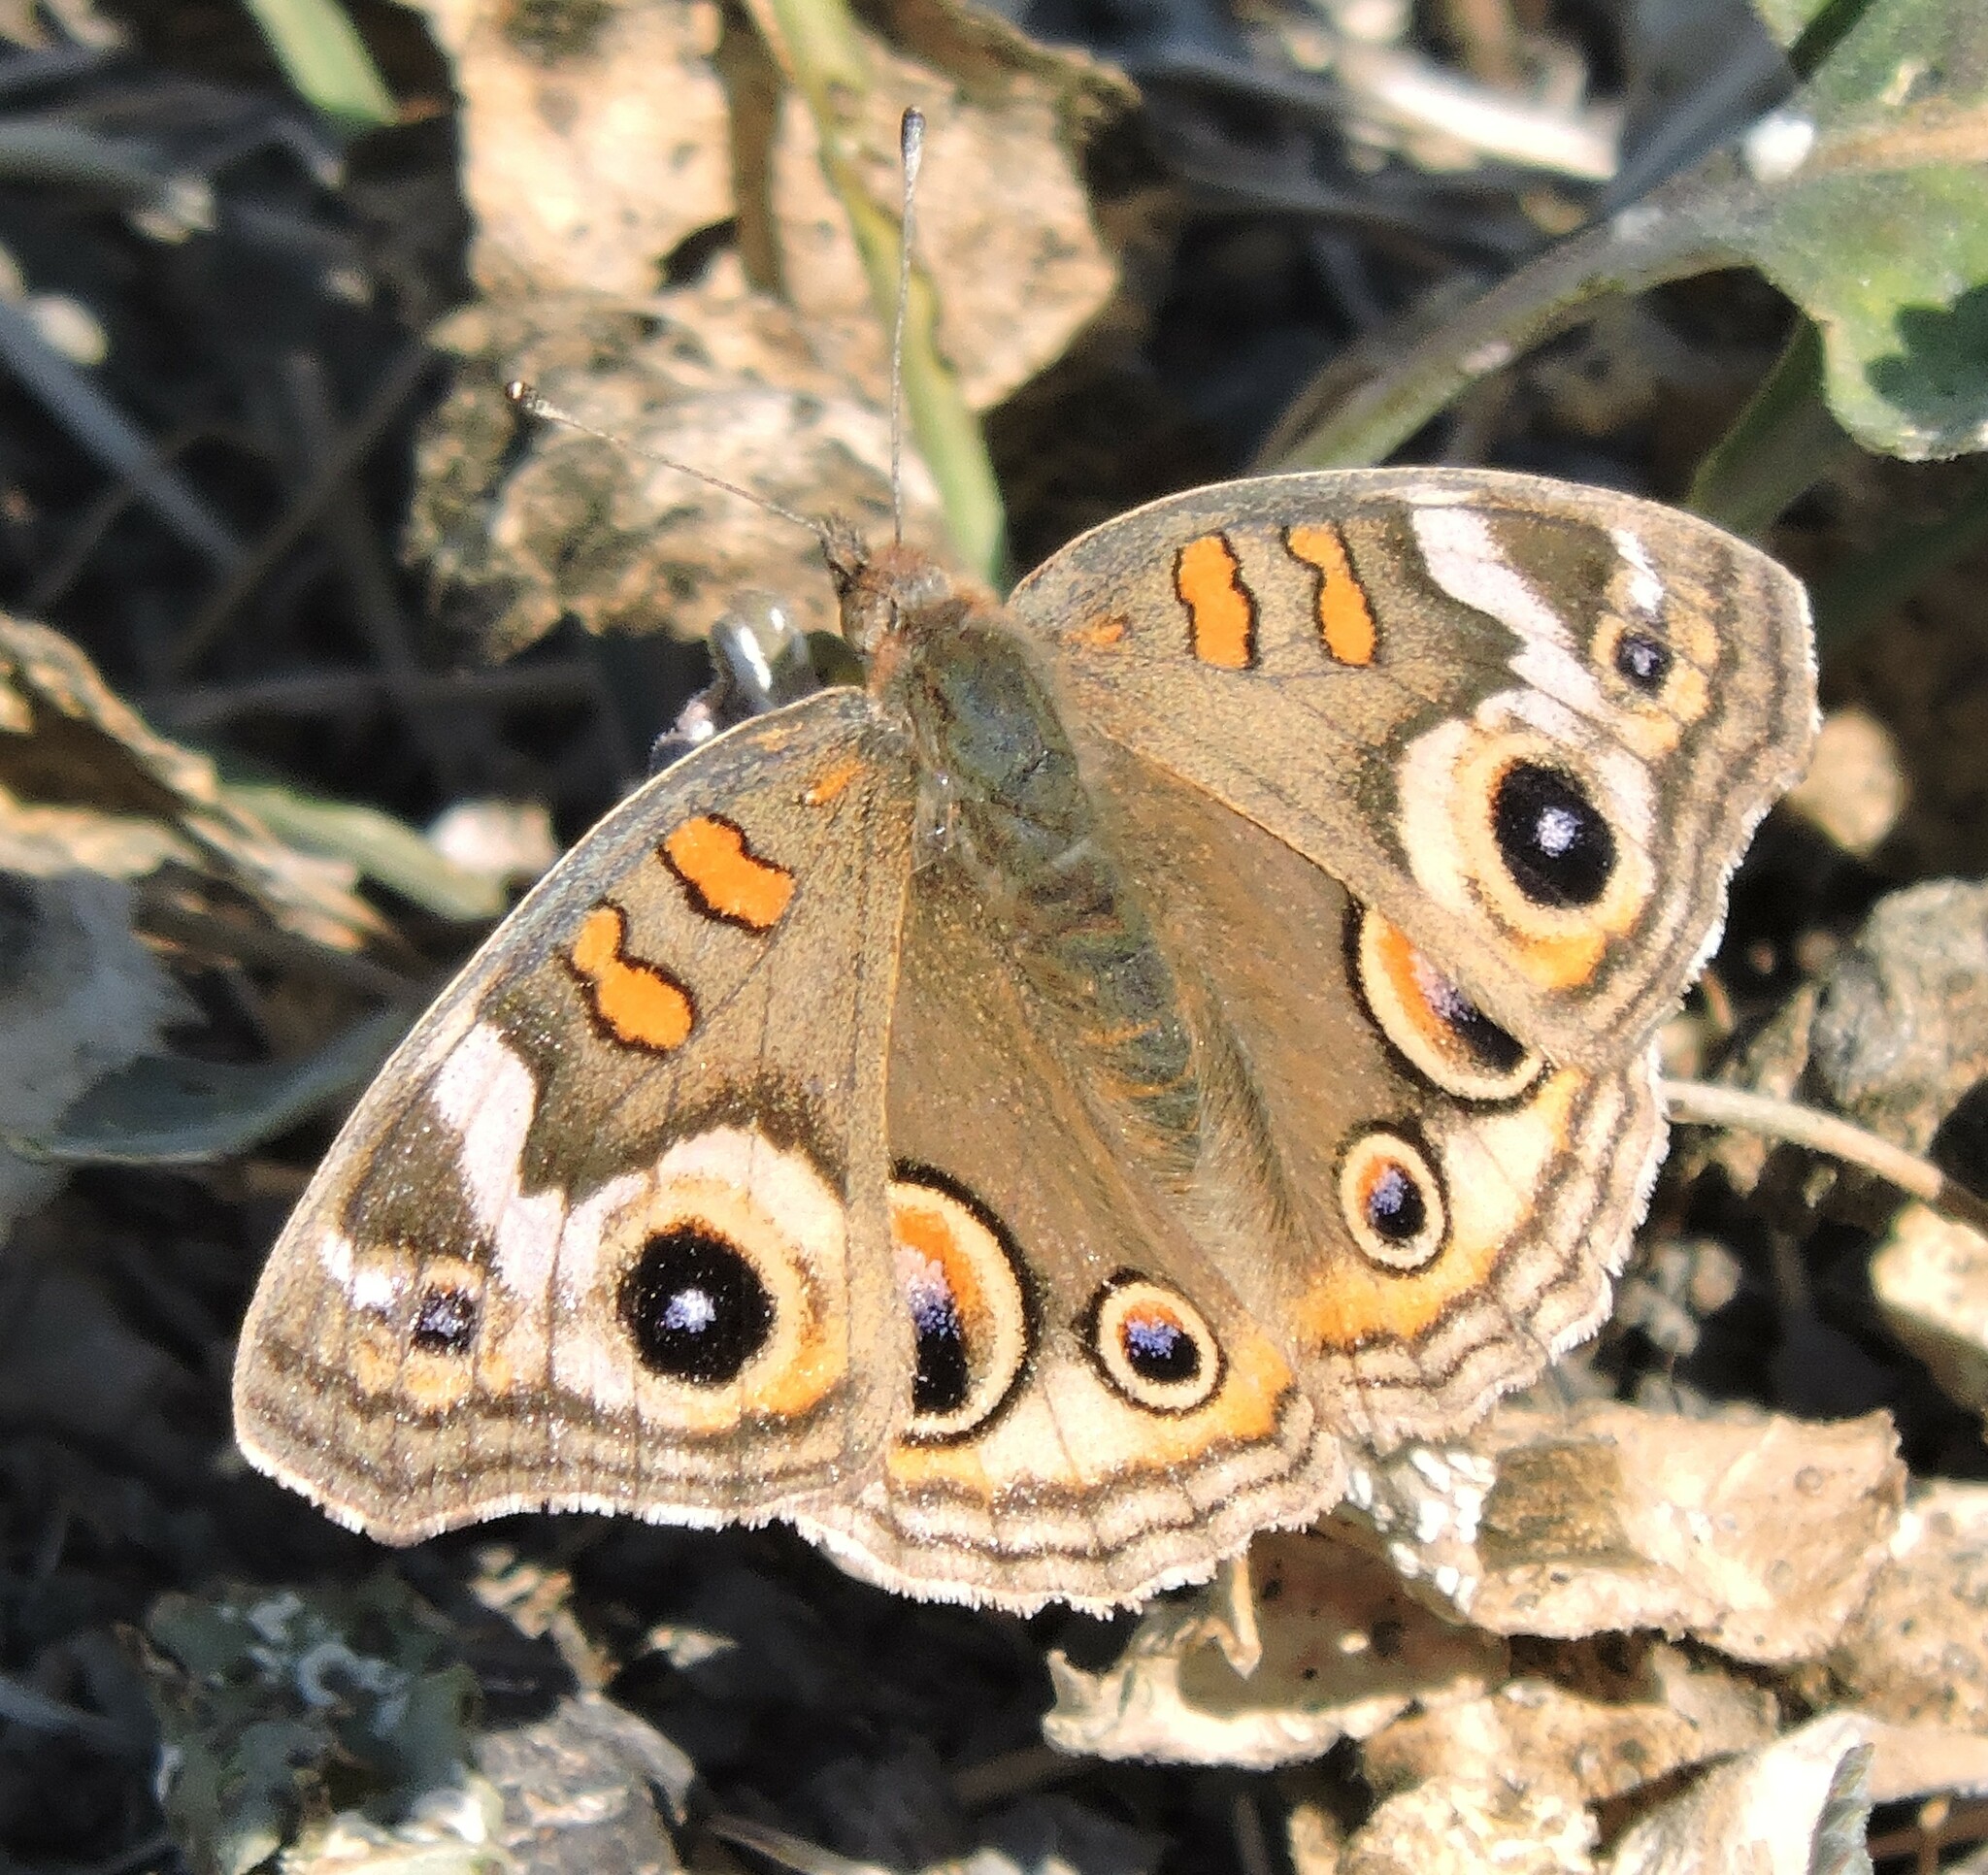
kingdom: Animalia
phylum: Arthropoda
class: Insecta
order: Lepidoptera
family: Nymphalidae
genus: Junonia
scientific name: Junonia grisea
